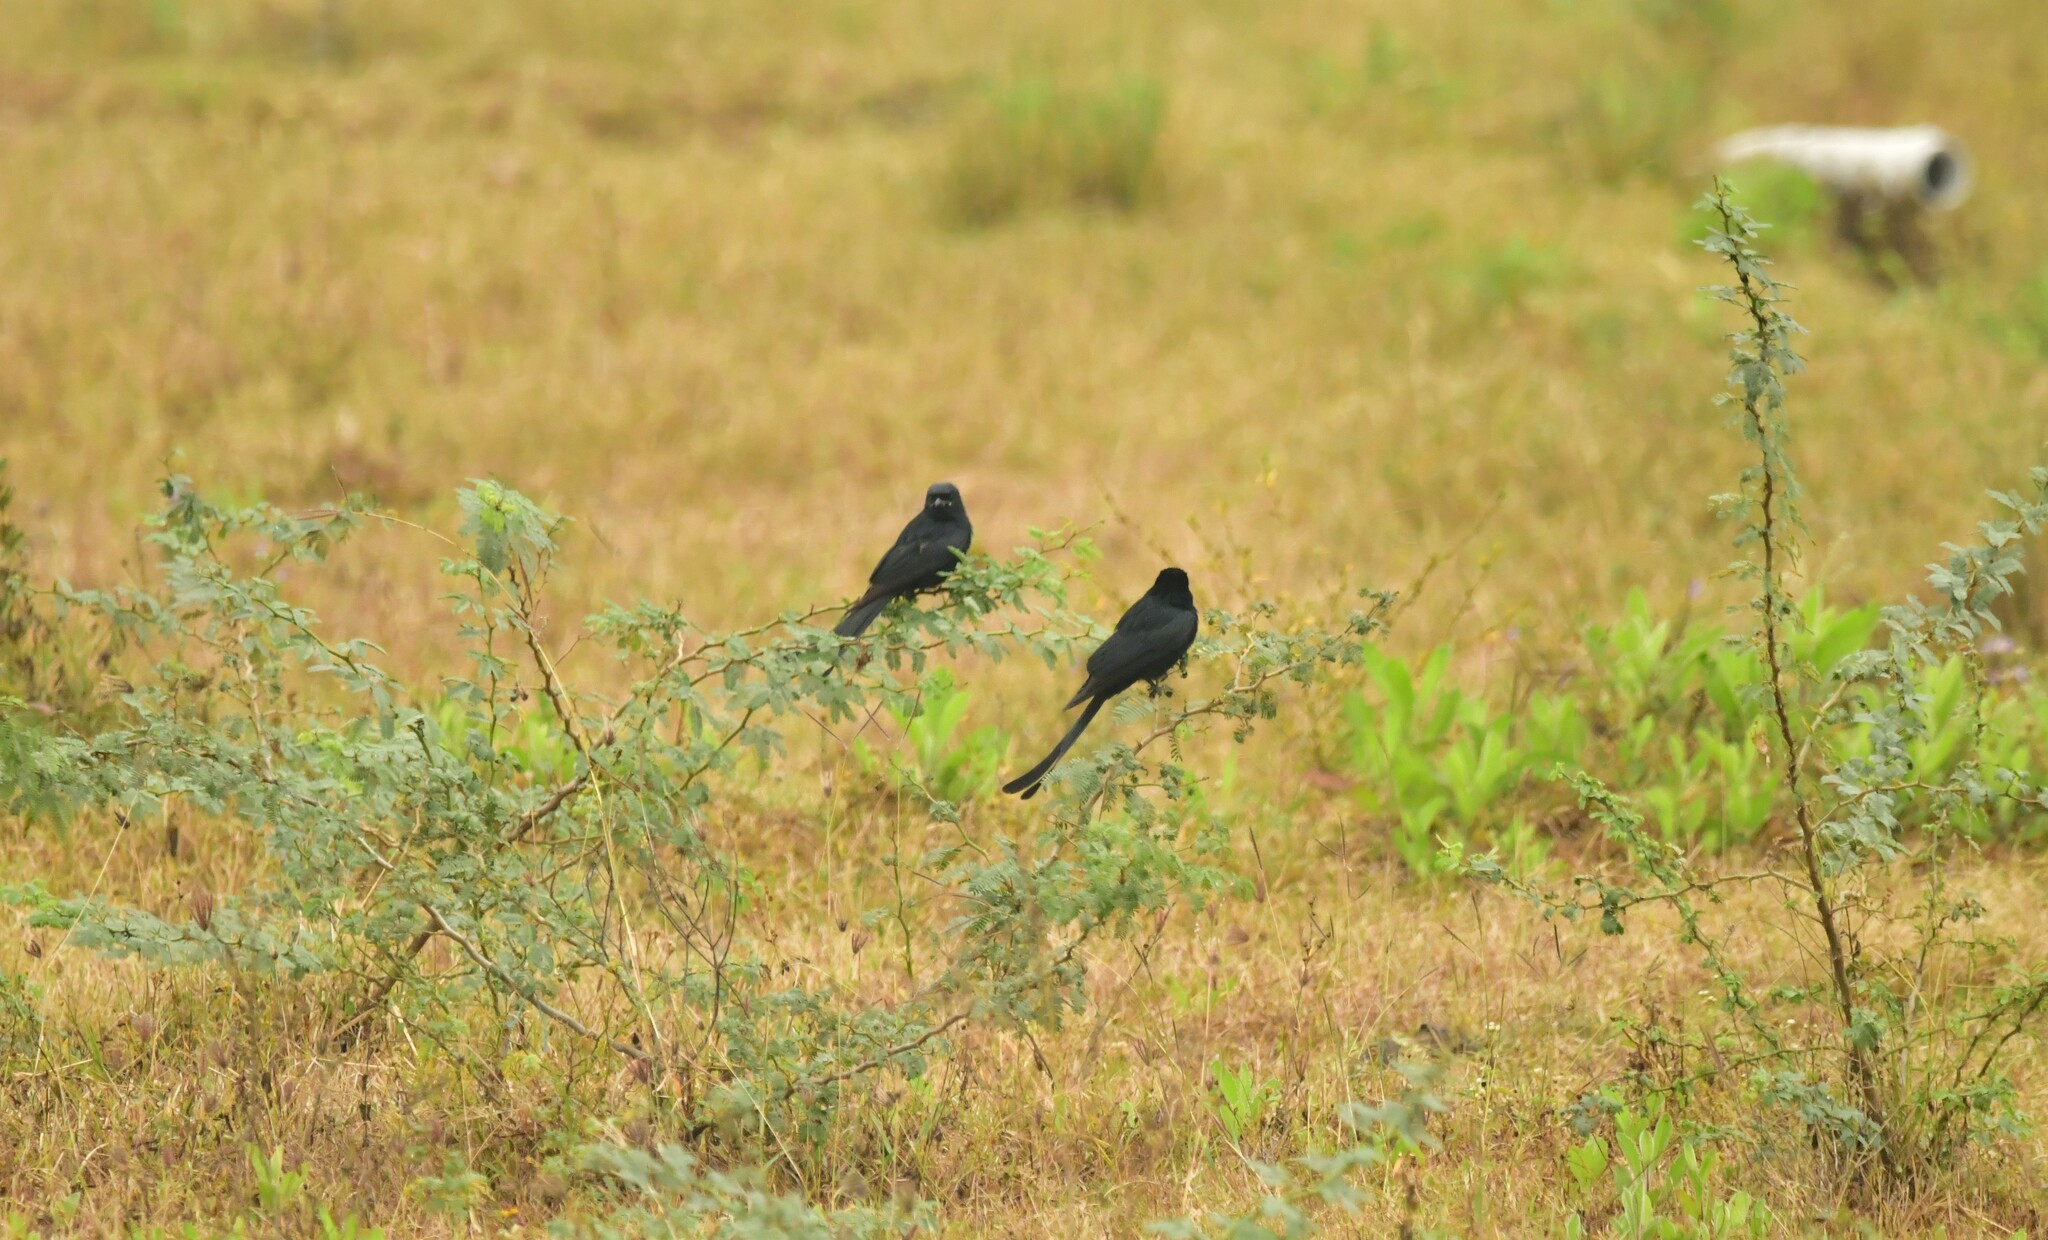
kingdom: Animalia
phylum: Chordata
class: Aves
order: Passeriformes
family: Dicruridae
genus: Dicrurus
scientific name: Dicrurus macrocercus
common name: Black drongo
